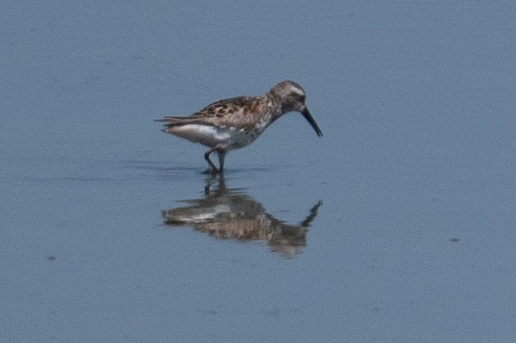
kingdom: Animalia
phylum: Chordata
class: Aves
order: Charadriiformes
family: Scolopacidae
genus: Calidris
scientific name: Calidris mauri
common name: Western sandpiper
